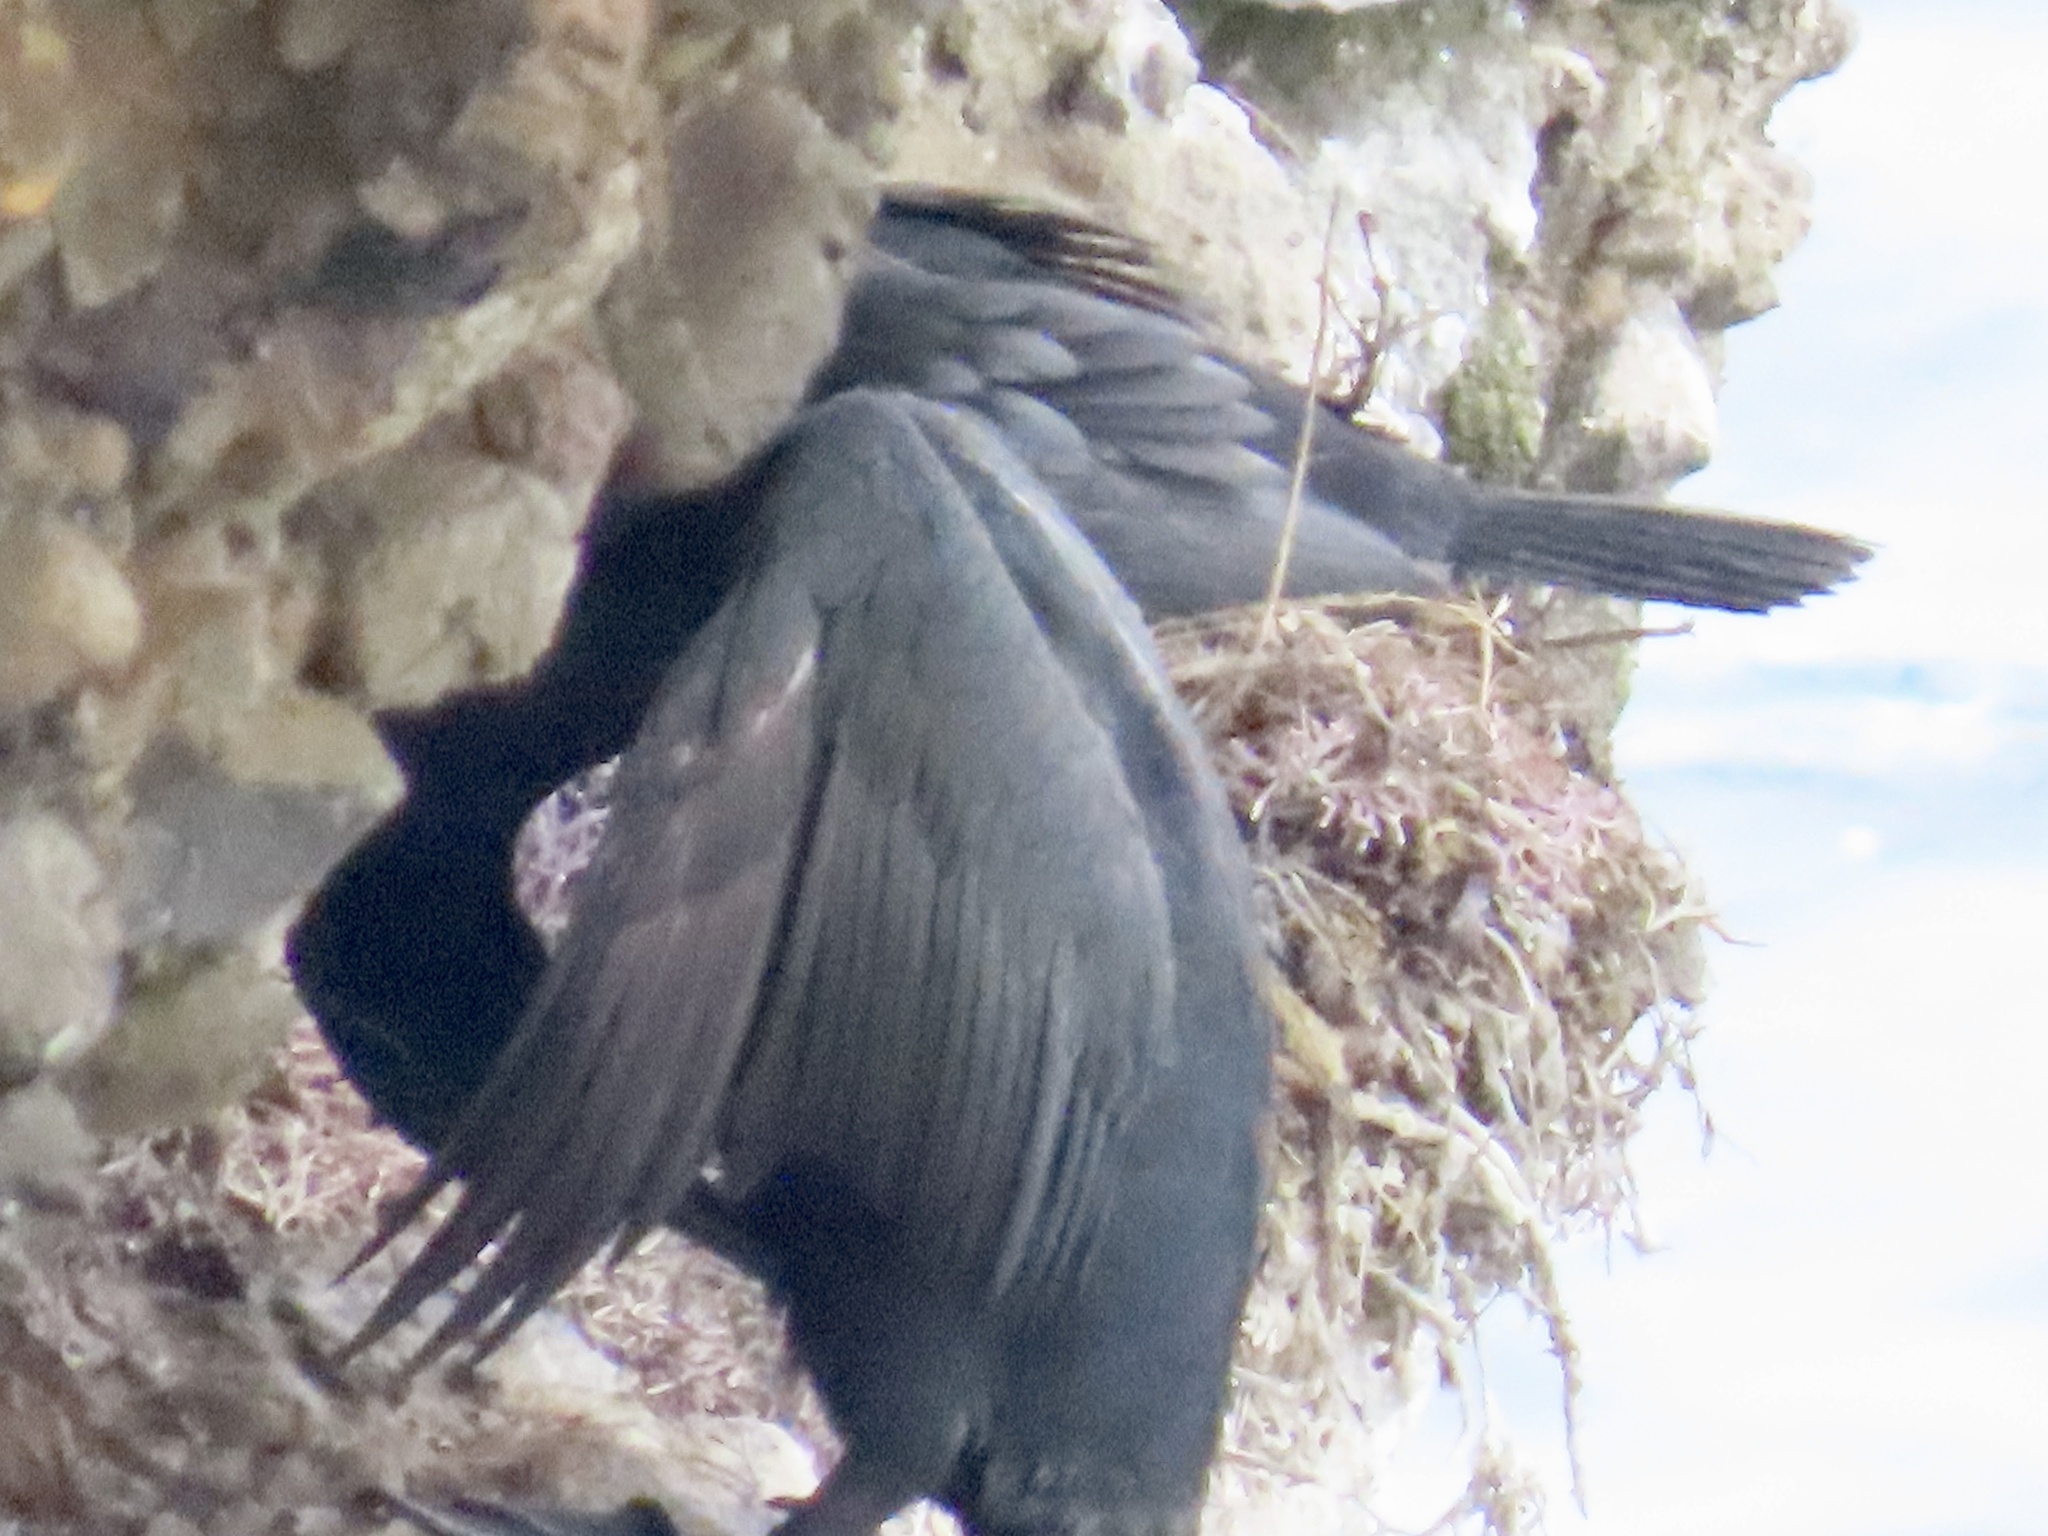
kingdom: Animalia
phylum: Chordata
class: Aves
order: Suliformes
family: Phalacrocoracidae
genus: Phalacrocorax
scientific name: Phalacrocorax pelagicus
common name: Pelagic cormorant
